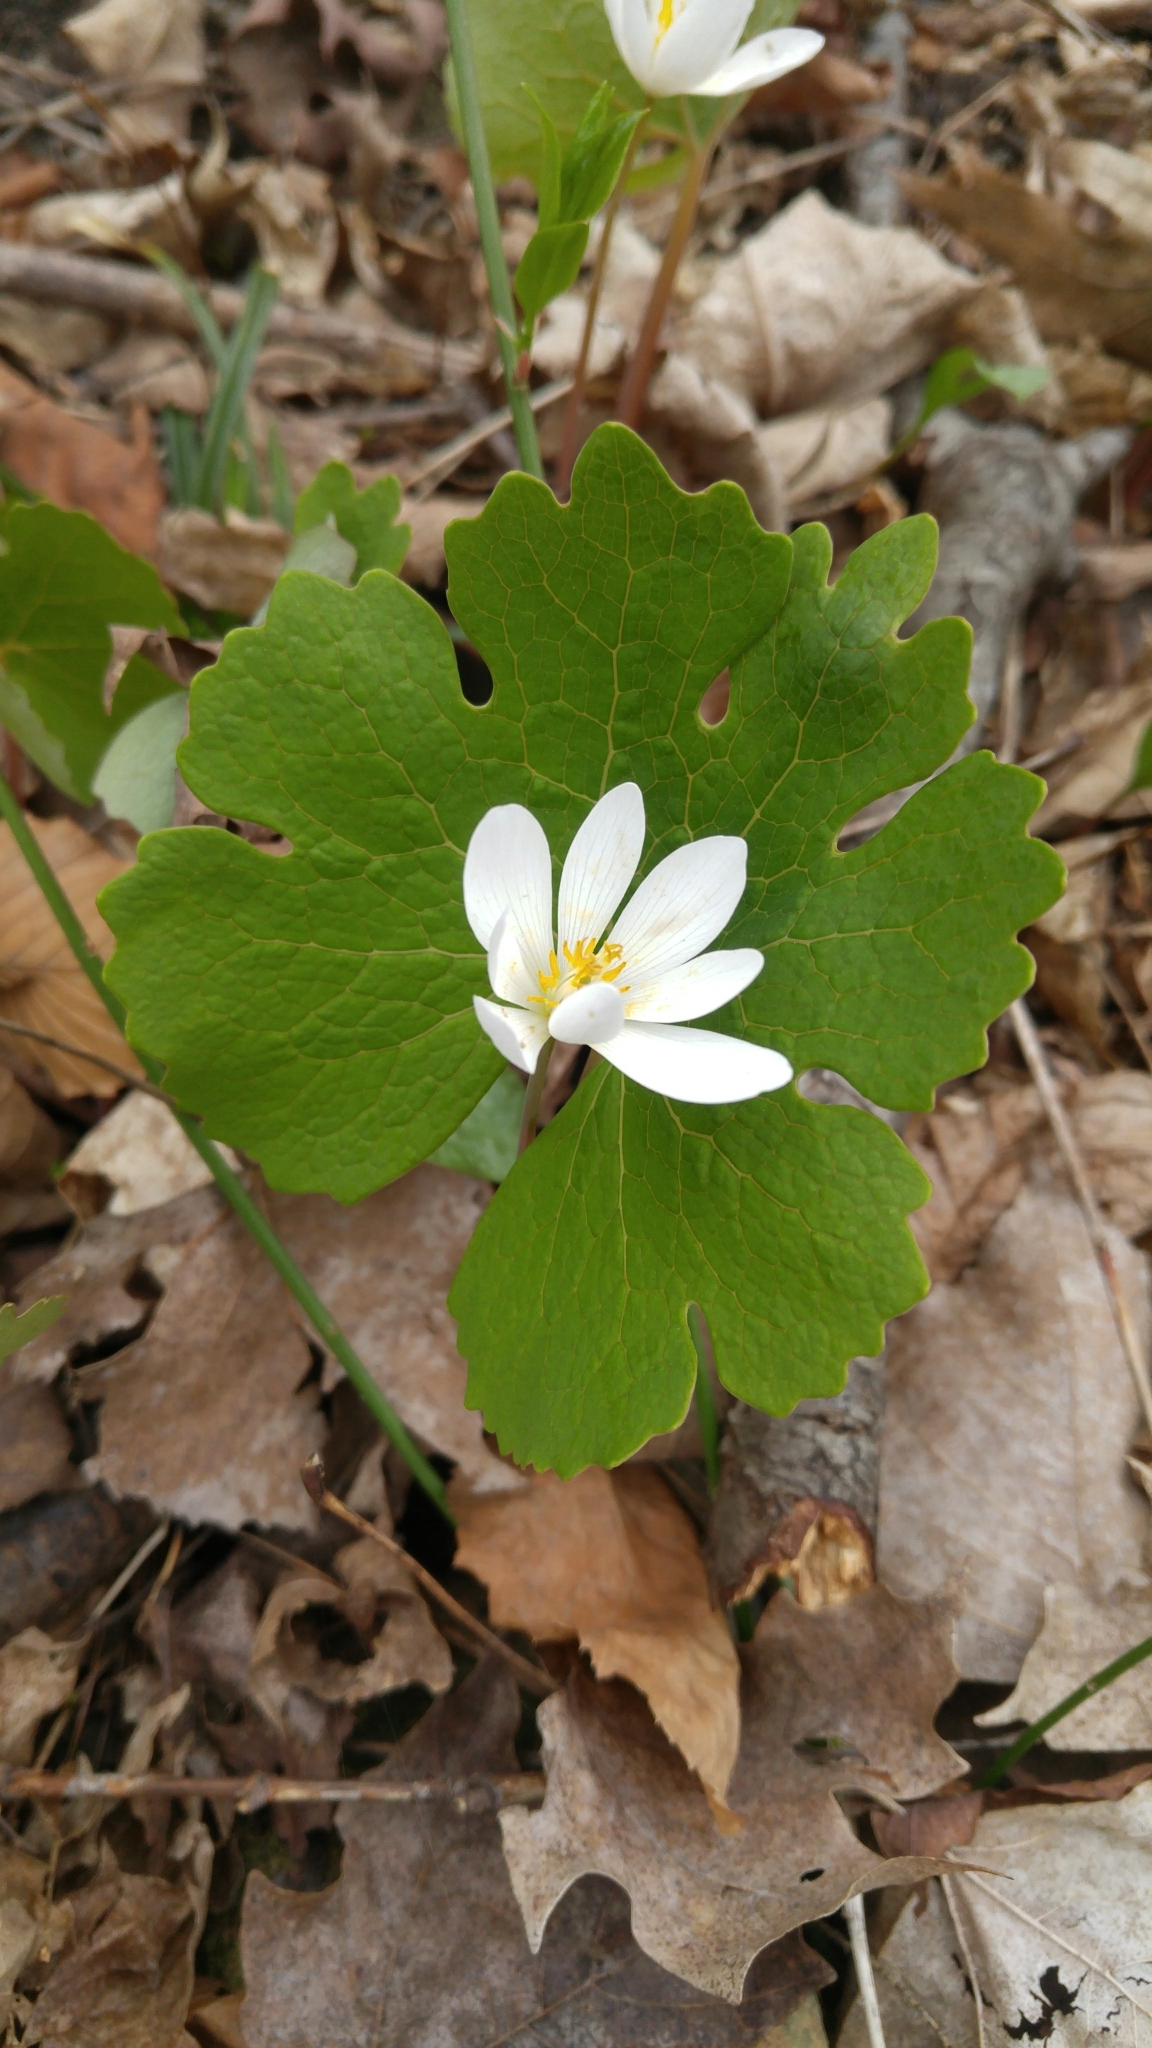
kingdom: Plantae
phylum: Tracheophyta
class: Magnoliopsida
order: Ranunculales
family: Papaveraceae
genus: Sanguinaria
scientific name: Sanguinaria canadensis
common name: Bloodroot
